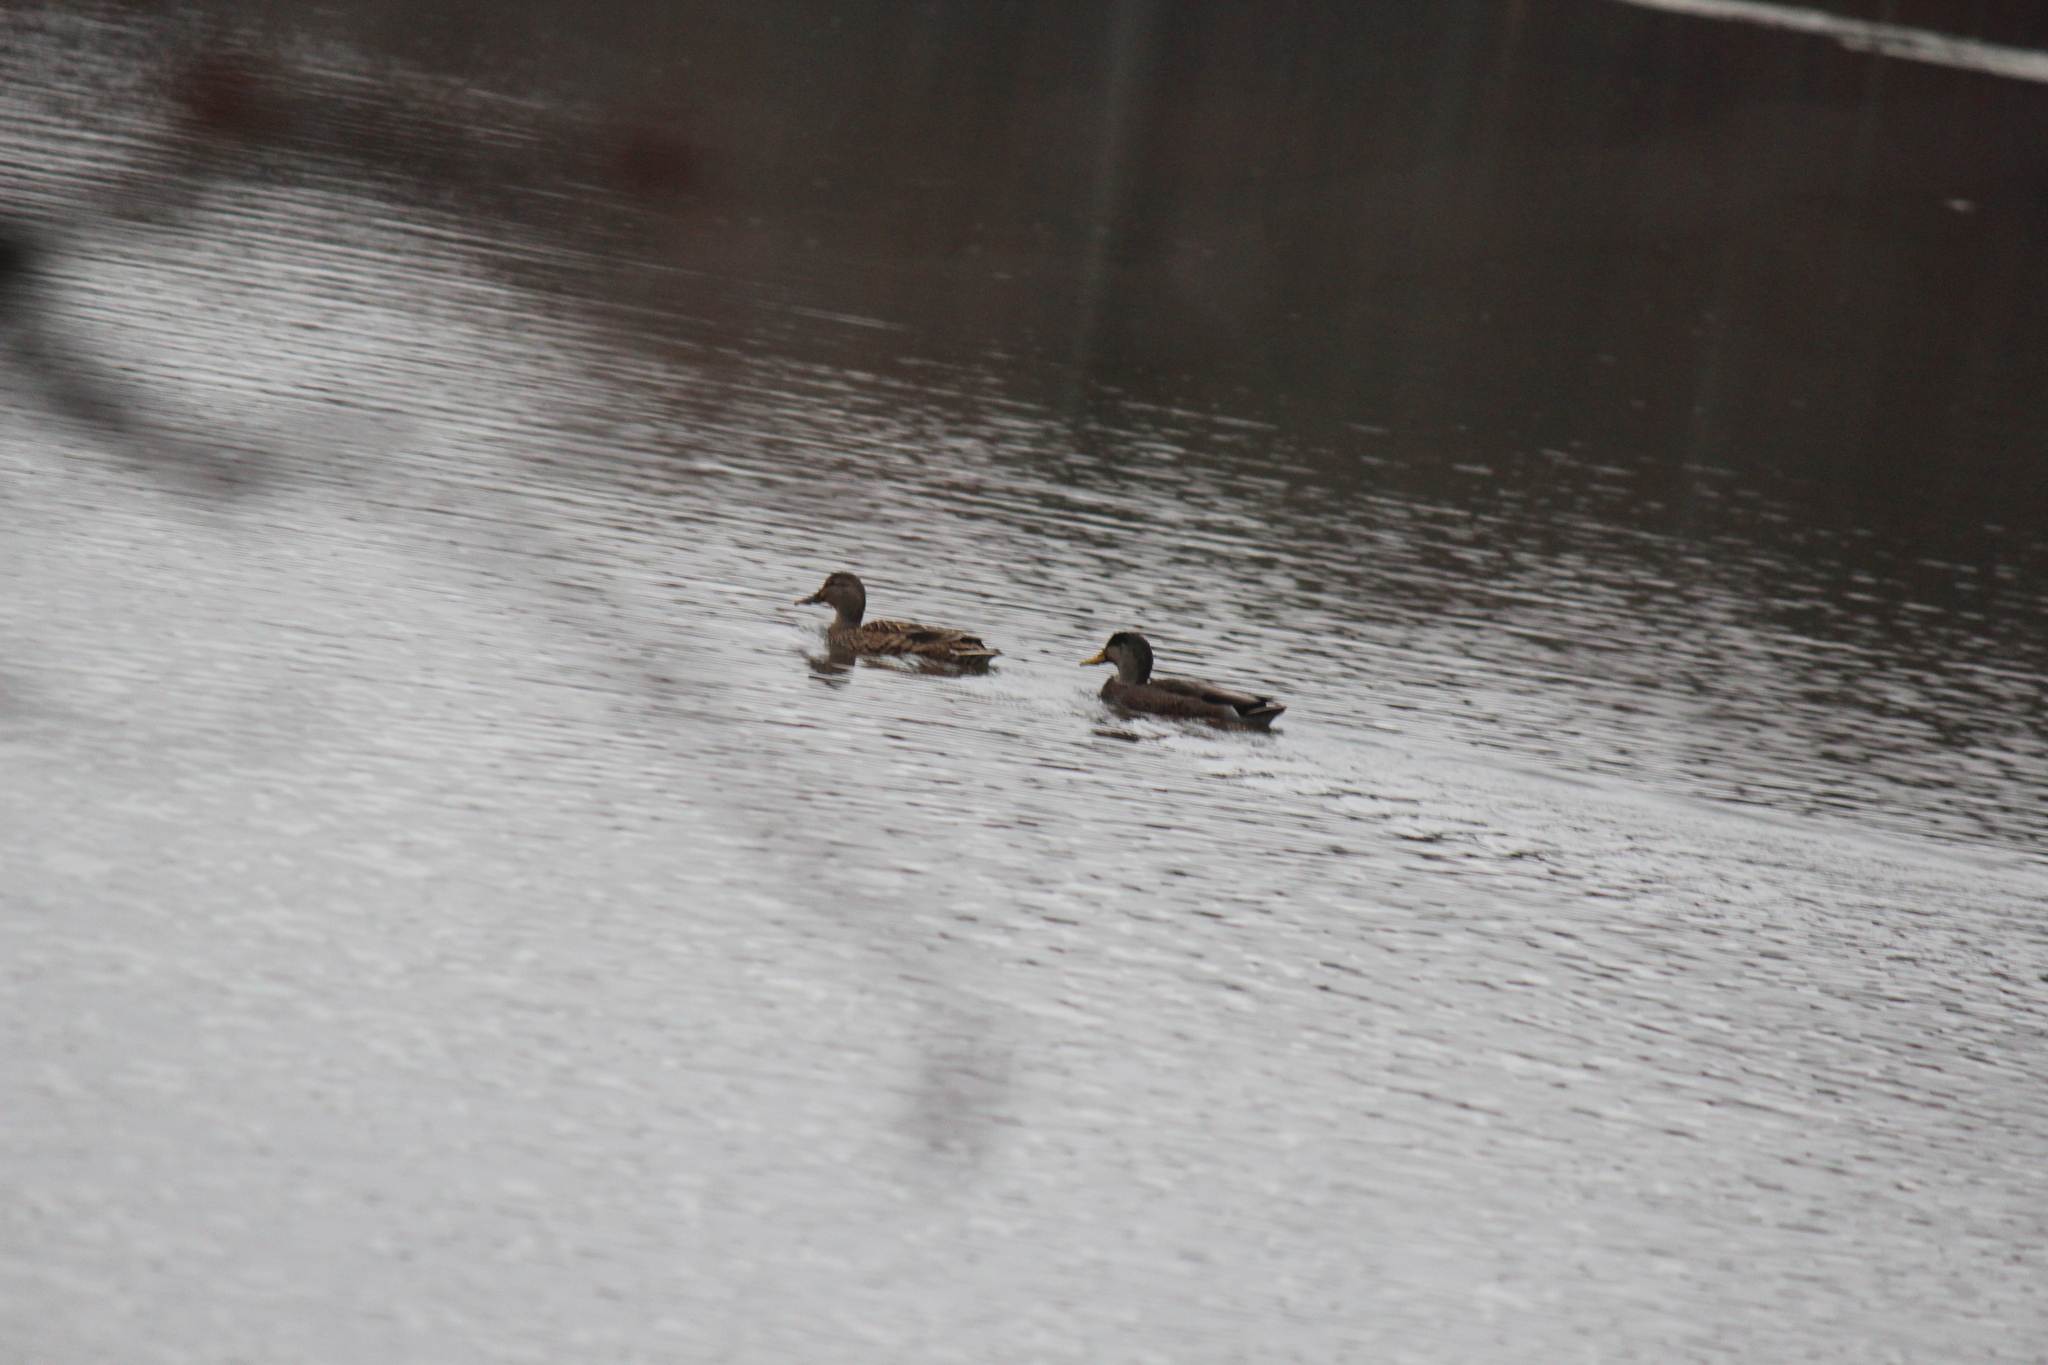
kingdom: Animalia
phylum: Chordata
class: Aves
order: Anseriformes
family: Anatidae
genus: Anas
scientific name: Anas platyrhynchos
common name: Mallard
